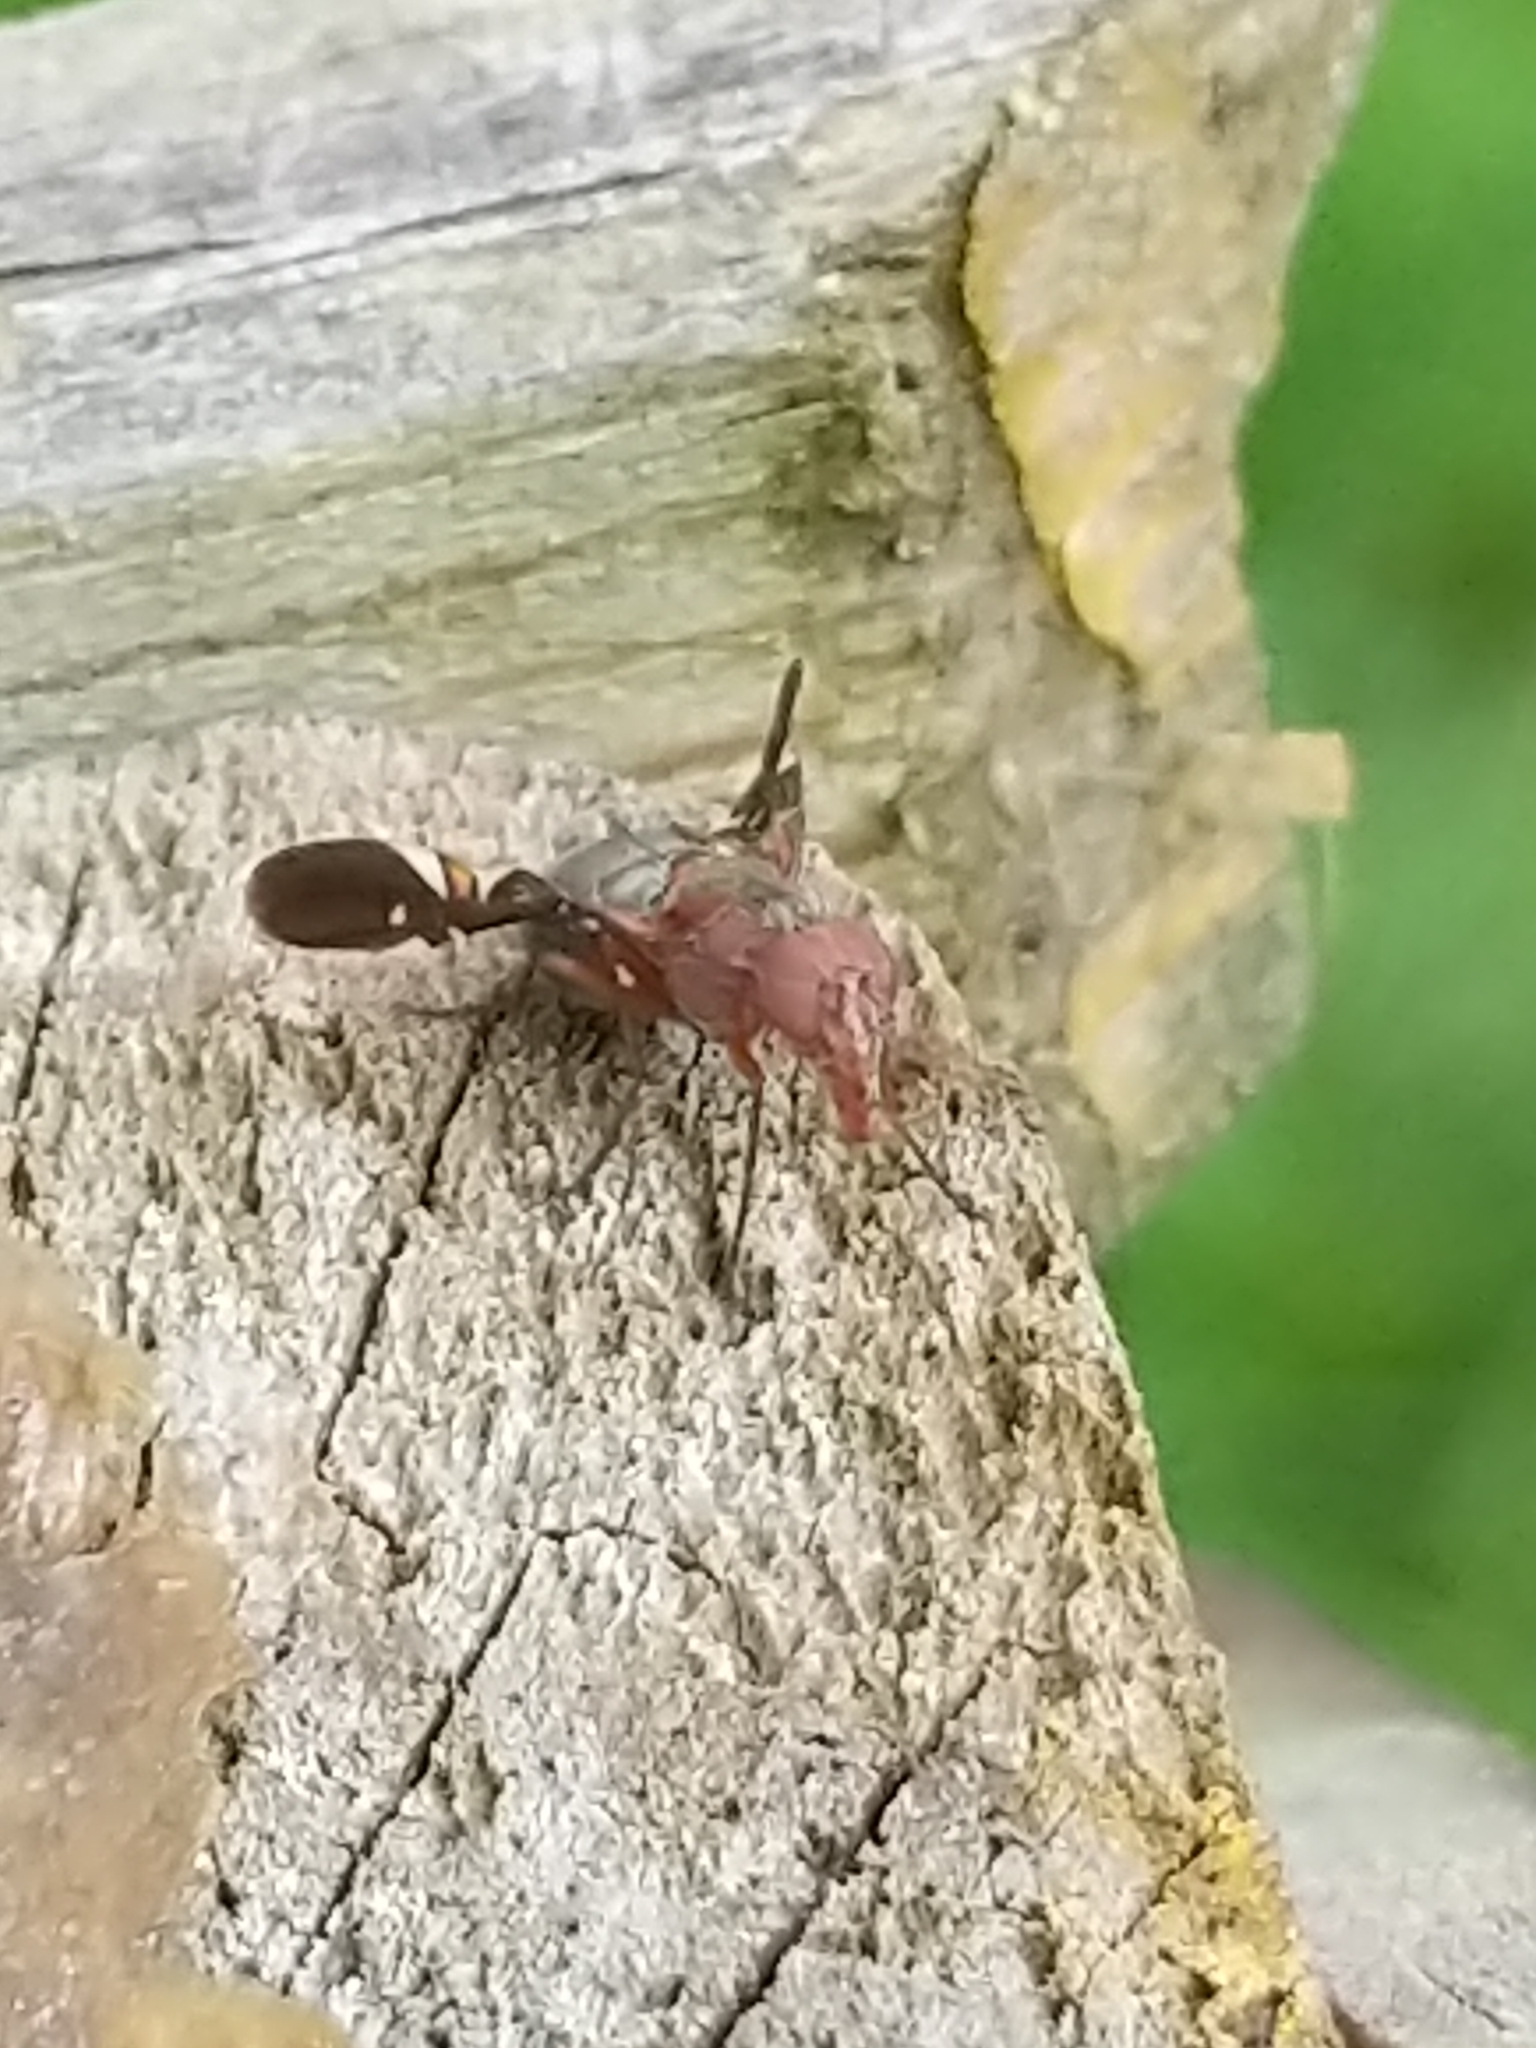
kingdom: Animalia
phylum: Arthropoda
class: Insecta
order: Diptera
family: Ulidiidae
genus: Delphinia
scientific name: Delphinia picta
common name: Common picture-winged fly
